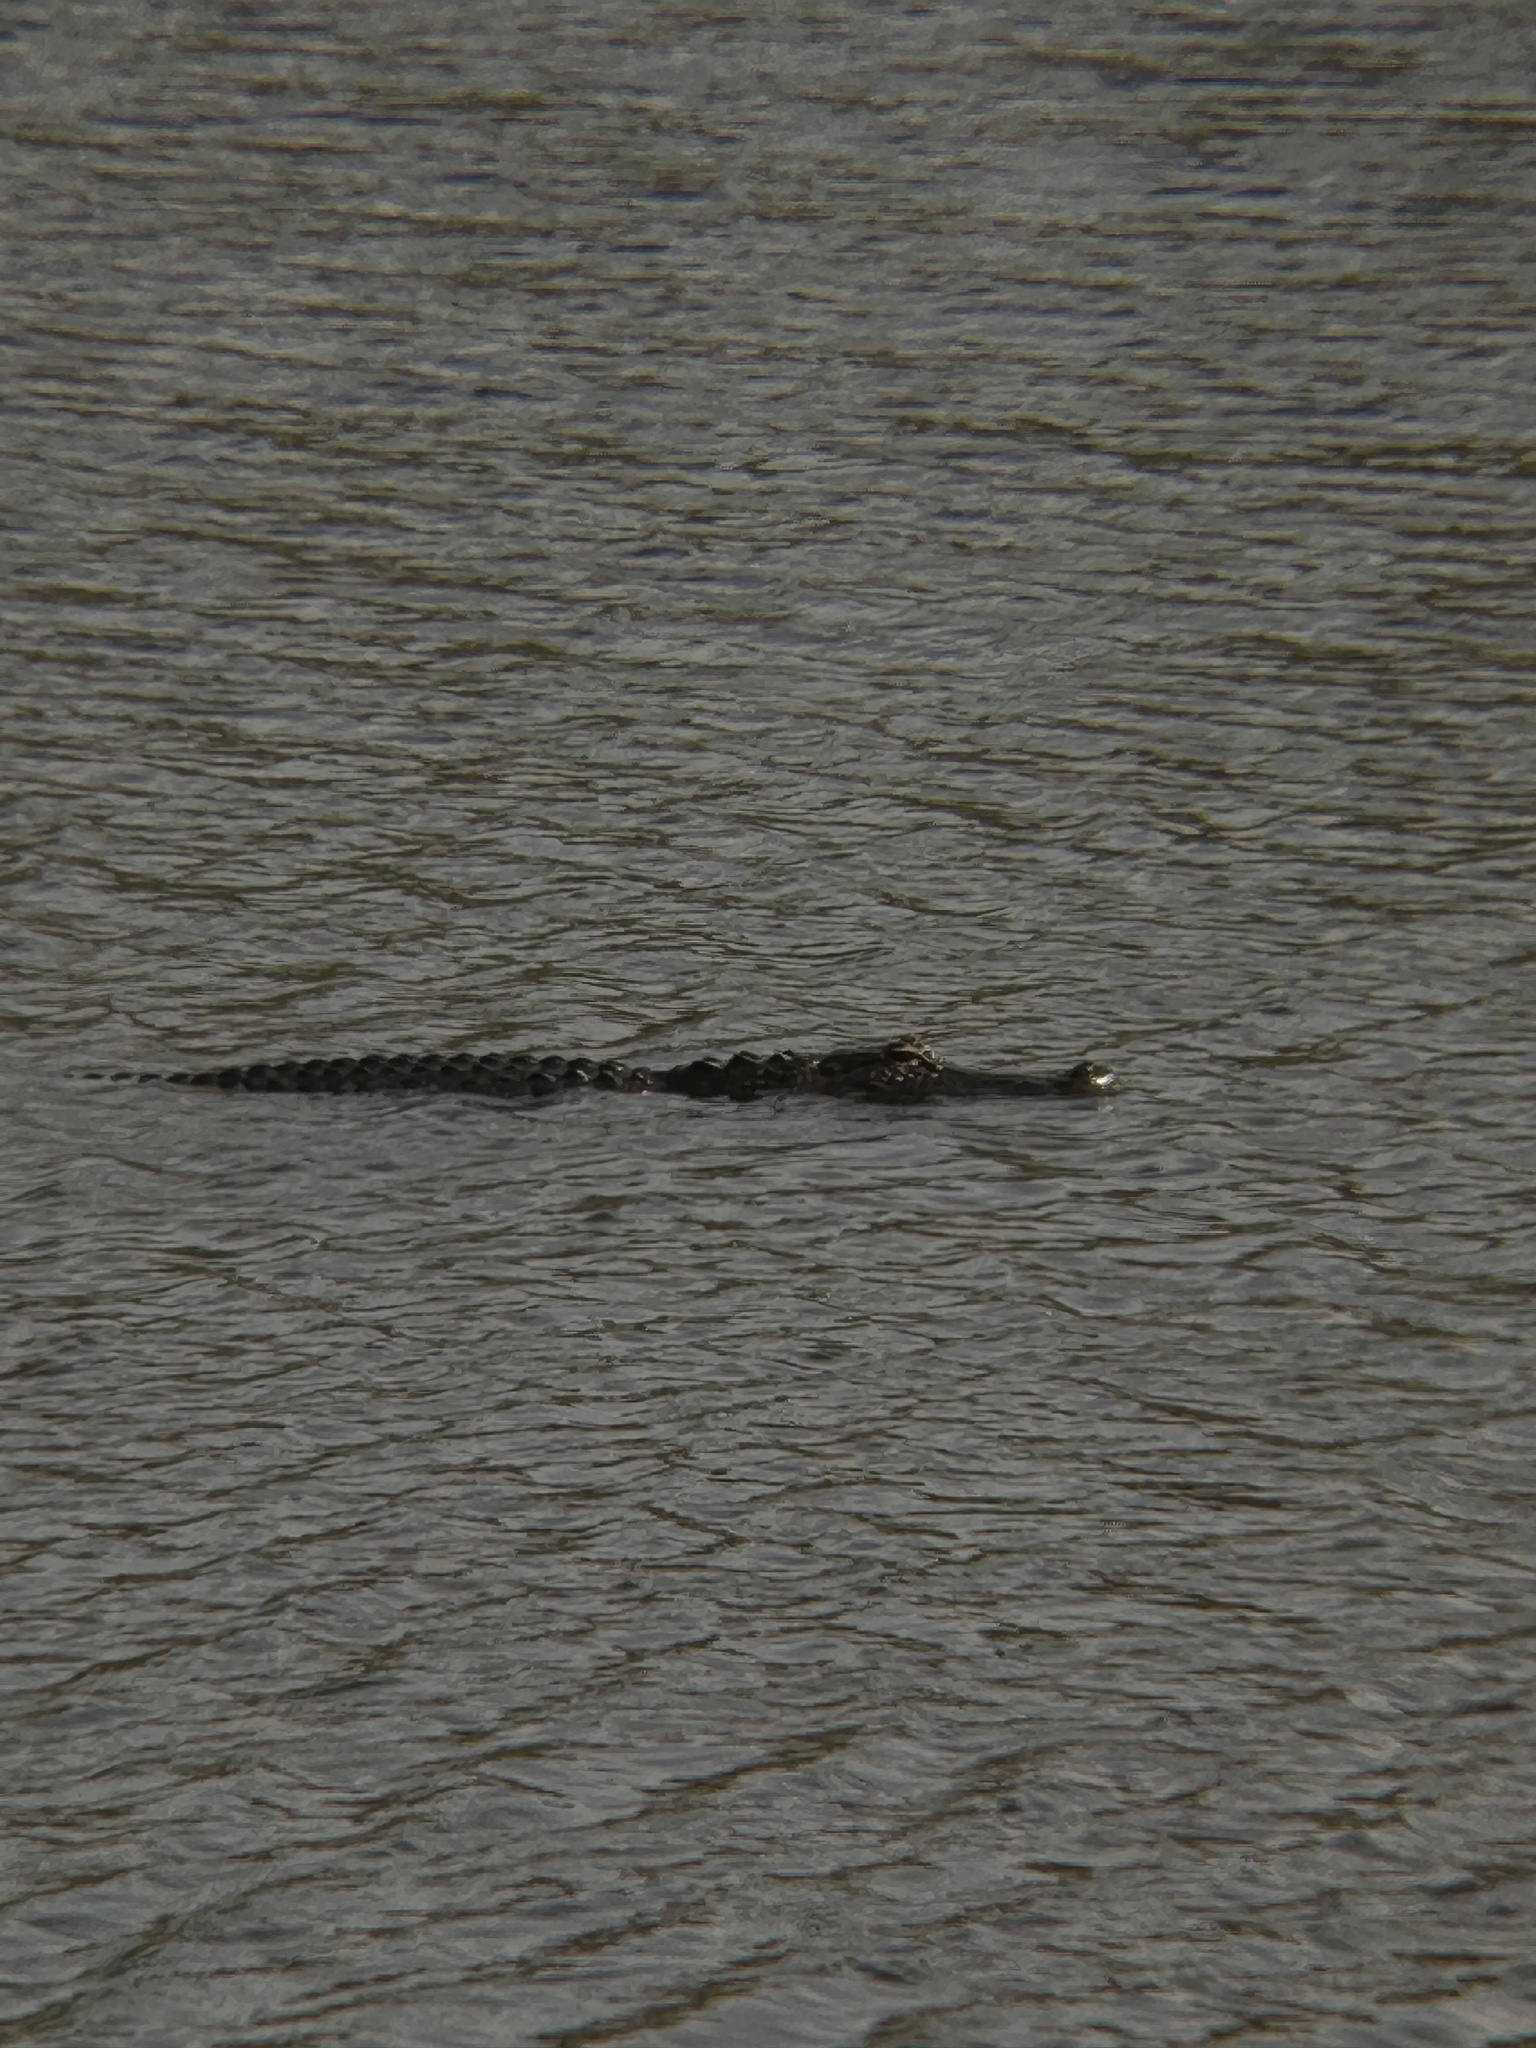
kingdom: Animalia
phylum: Chordata
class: Crocodylia
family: Alligatoridae
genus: Alligator
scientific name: Alligator mississippiensis
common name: American alligator
